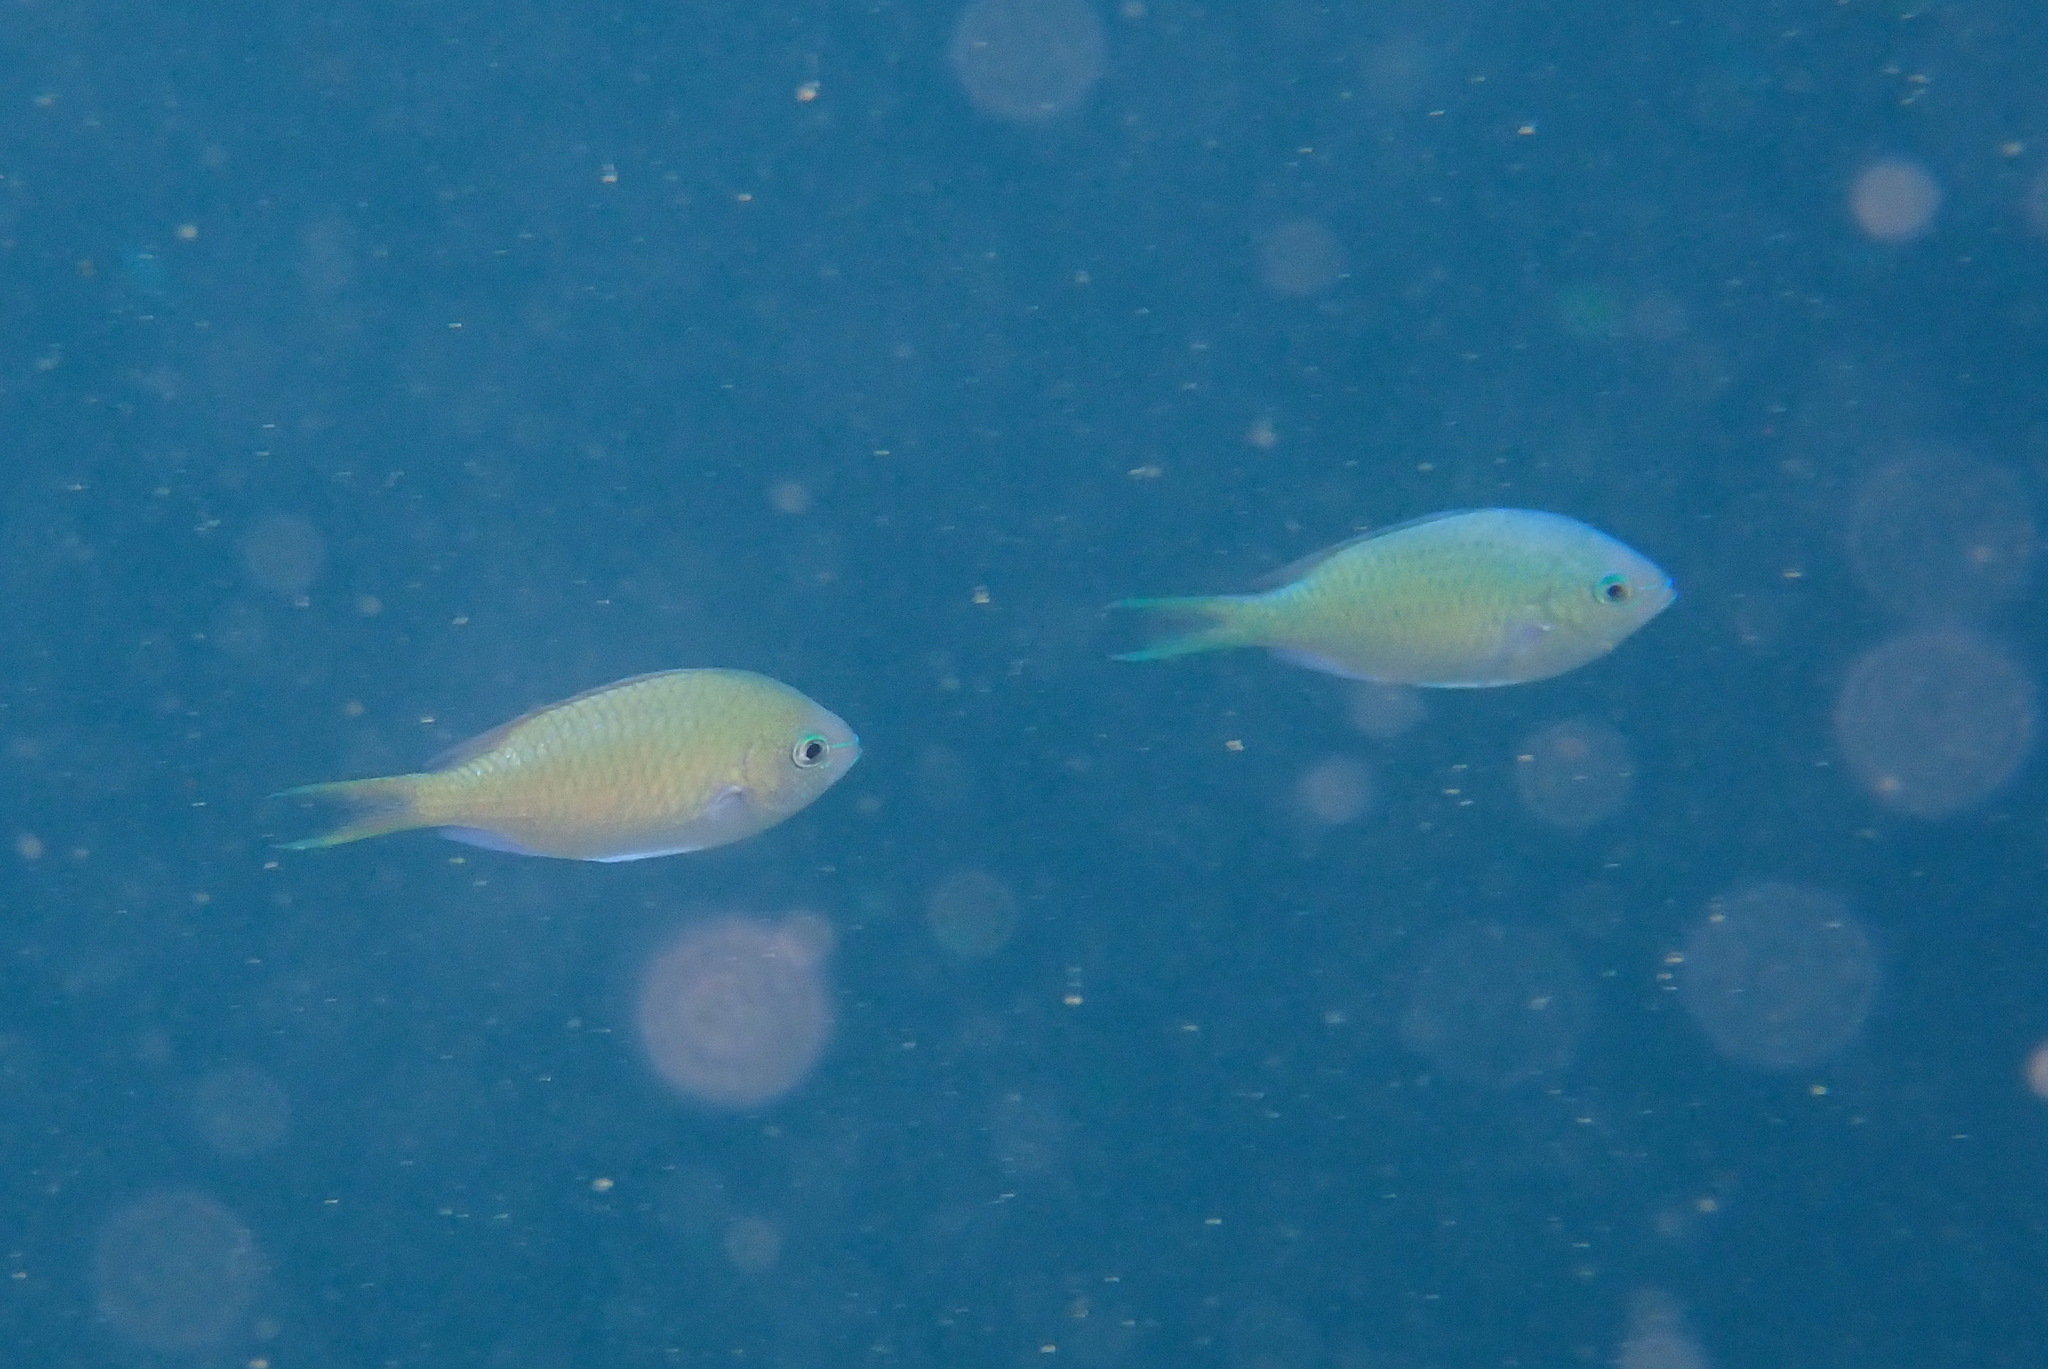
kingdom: Animalia
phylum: Chordata
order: Perciformes
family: Pomacentridae
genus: Chromis
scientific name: Chromis viridis
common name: Blue-green chromis
